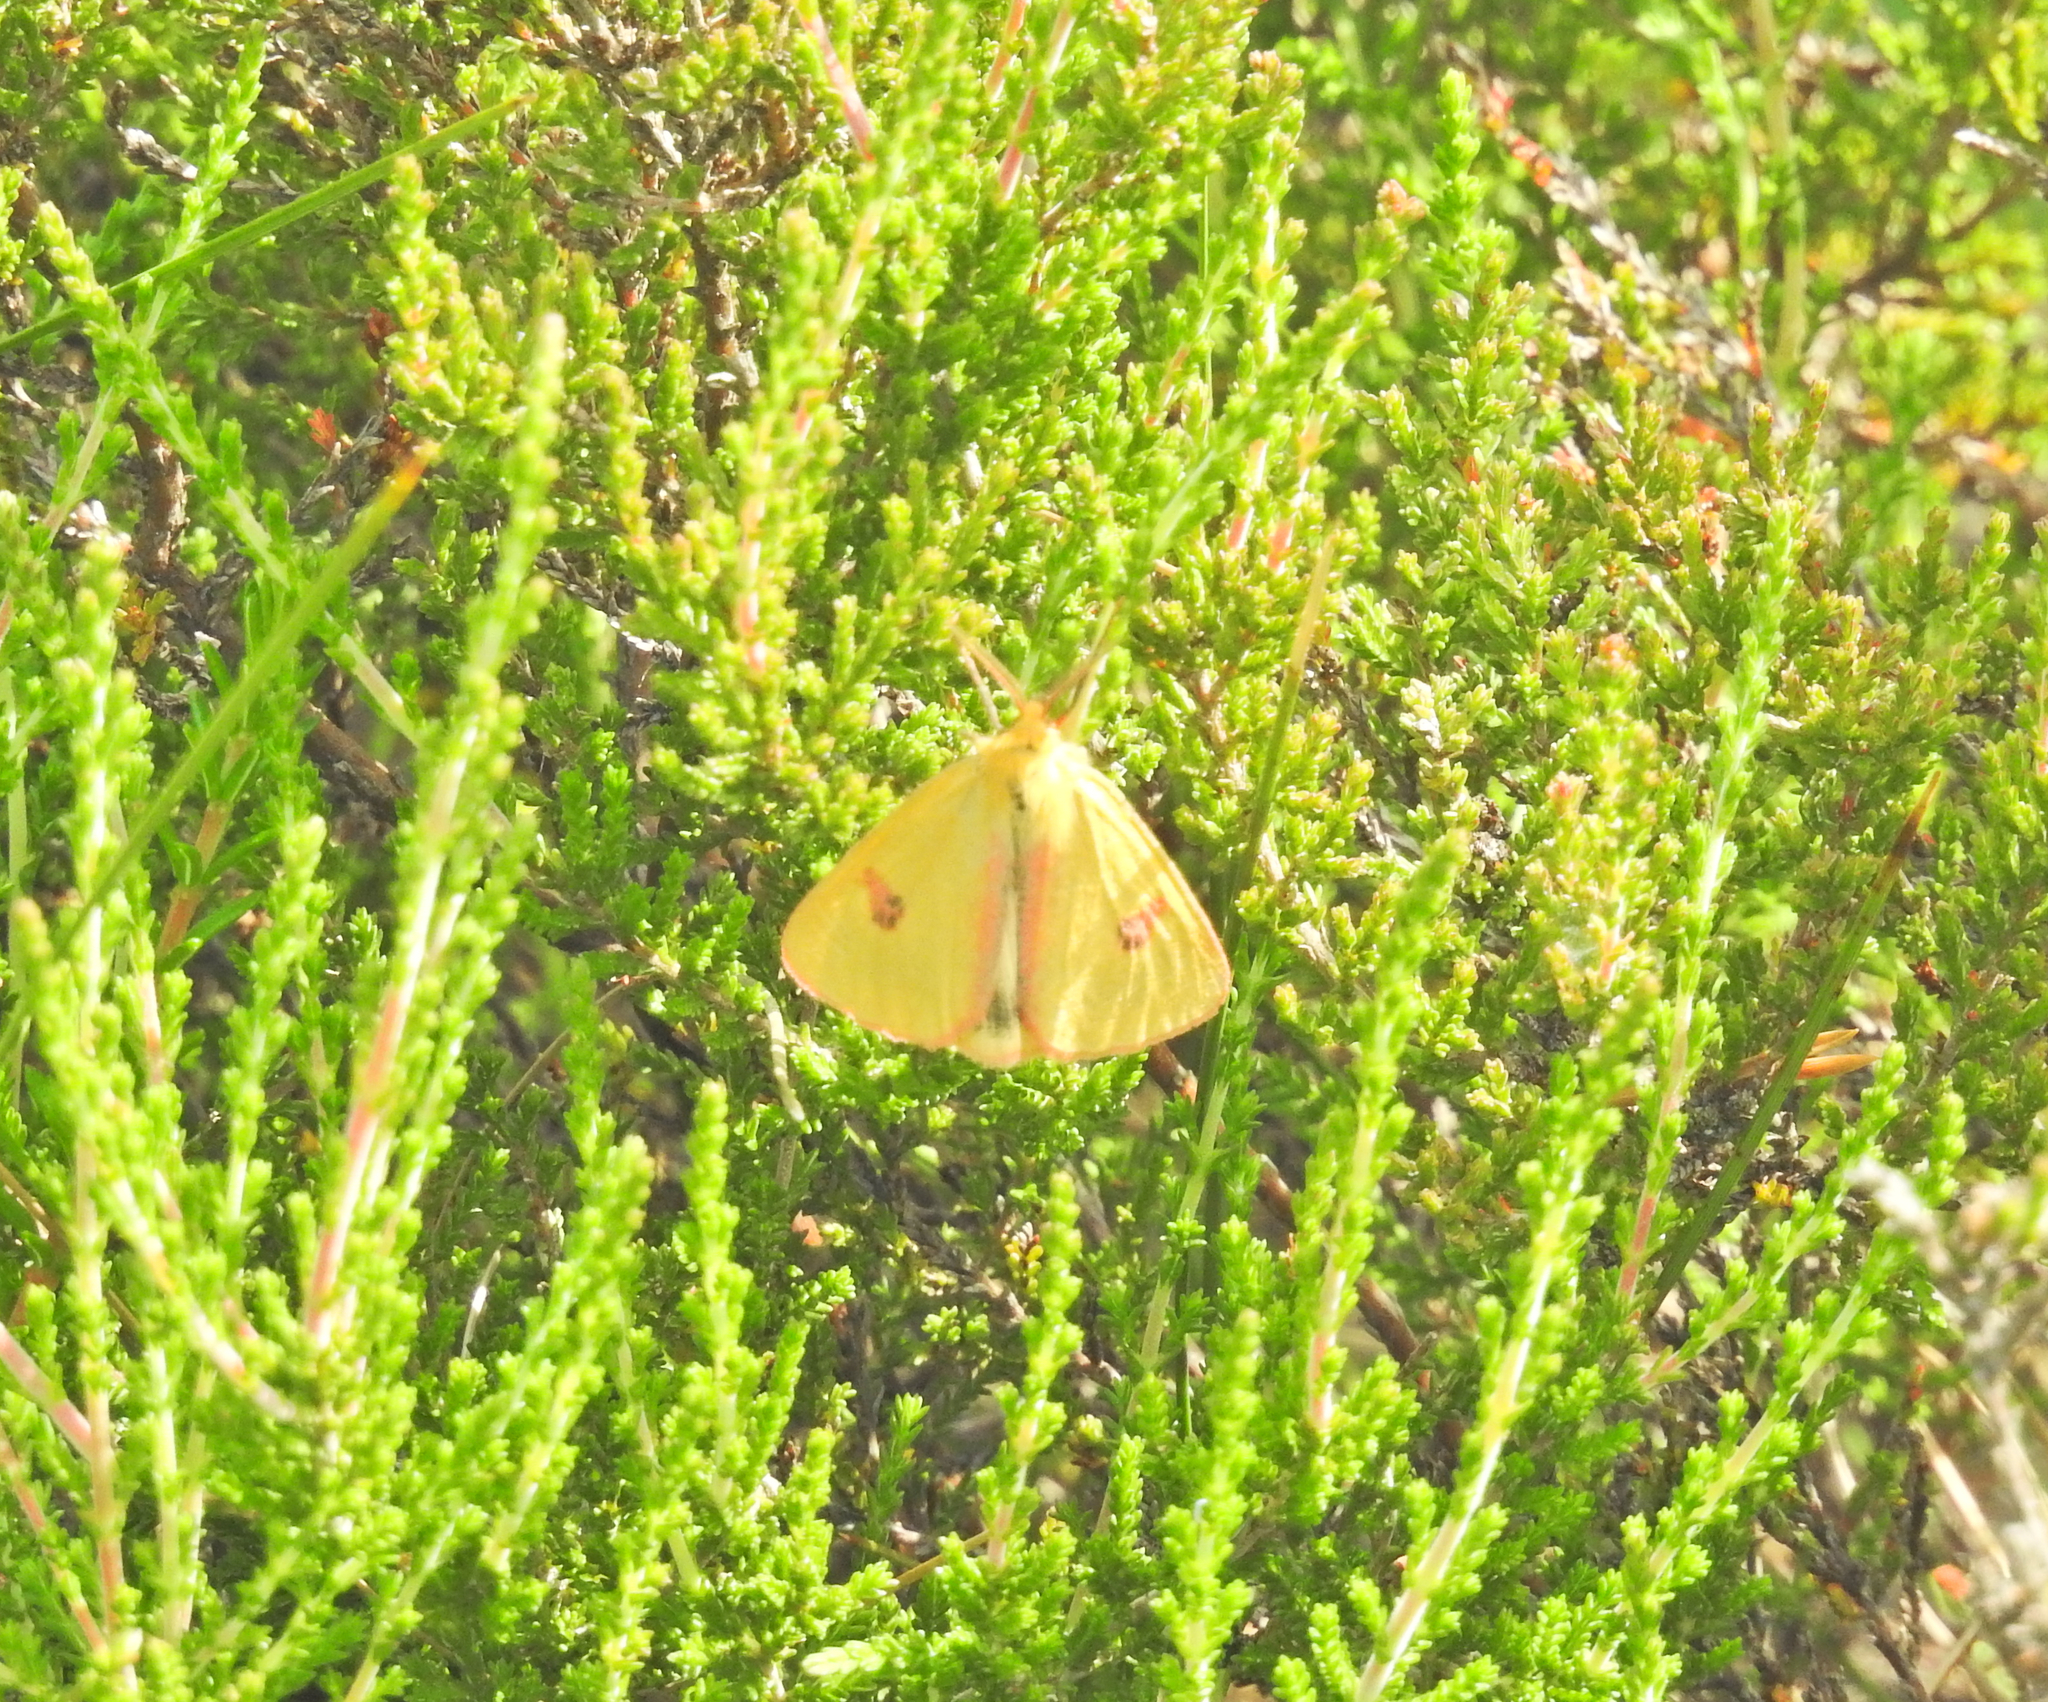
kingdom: Animalia
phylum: Arthropoda
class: Insecta
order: Lepidoptera
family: Erebidae
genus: Diacrisia
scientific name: Diacrisia sannio
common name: Clouded buff
